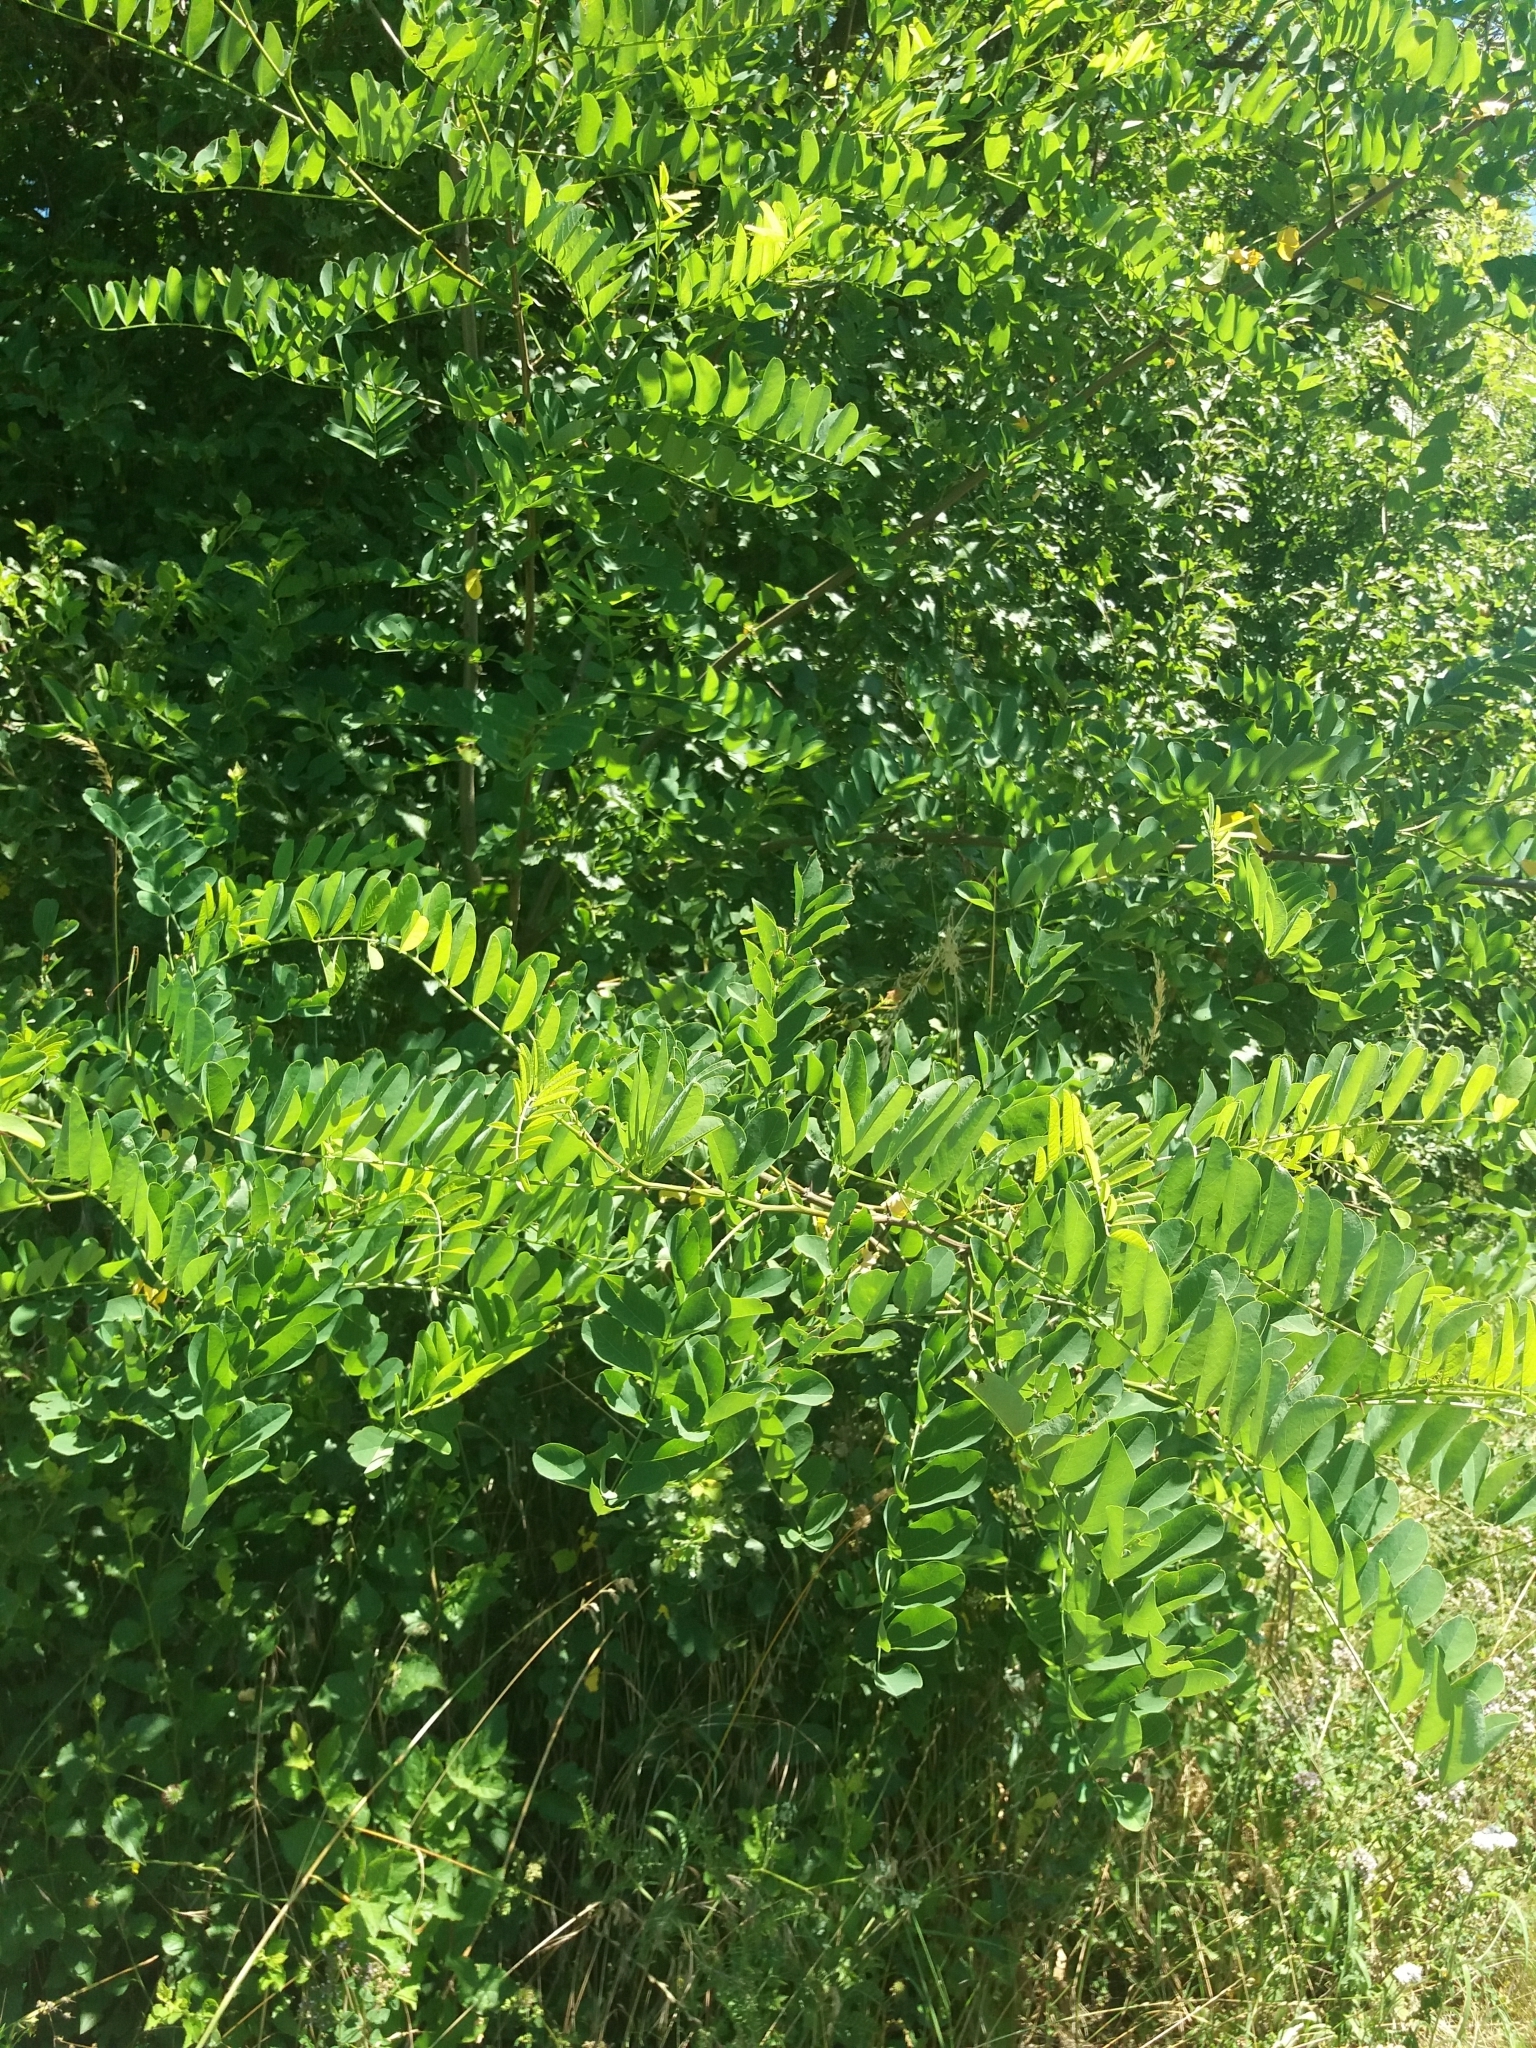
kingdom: Plantae
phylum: Tracheophyta
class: Magnoliopsida
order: Fabales
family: Fabaceae
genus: Robinia
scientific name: Robinia pseudoacacia
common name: Black locust
